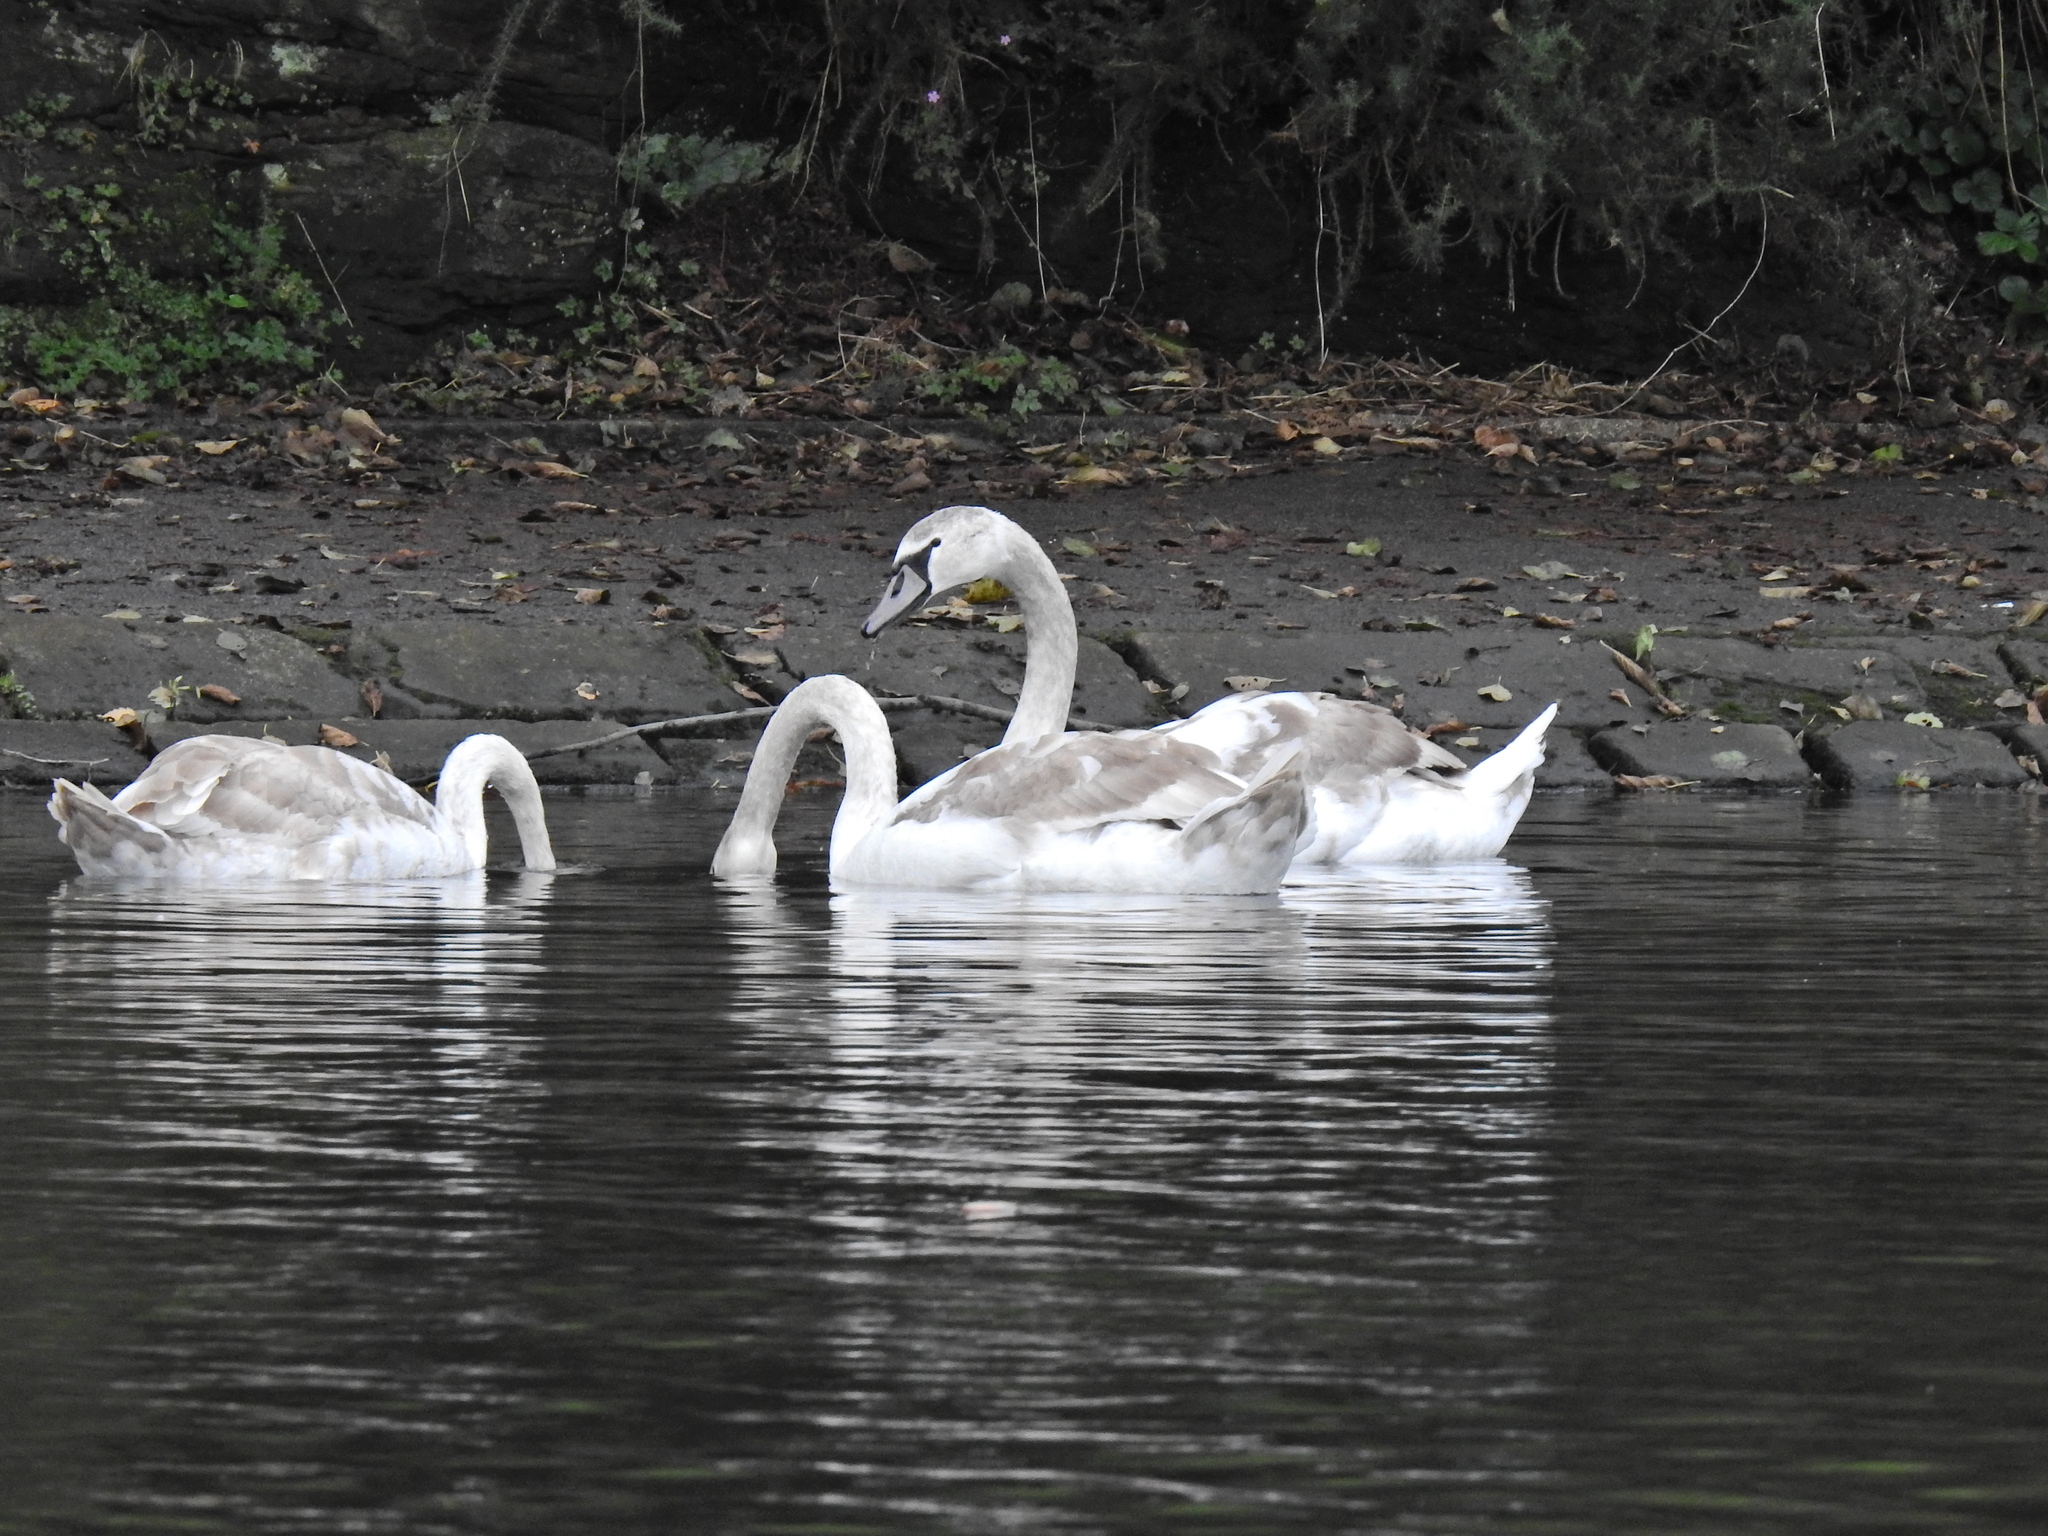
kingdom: Animalia
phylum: Chordata
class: Aves
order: Anseriformes
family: Anatidae
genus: Cygnus
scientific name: Cygnus olor
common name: Mute swan
